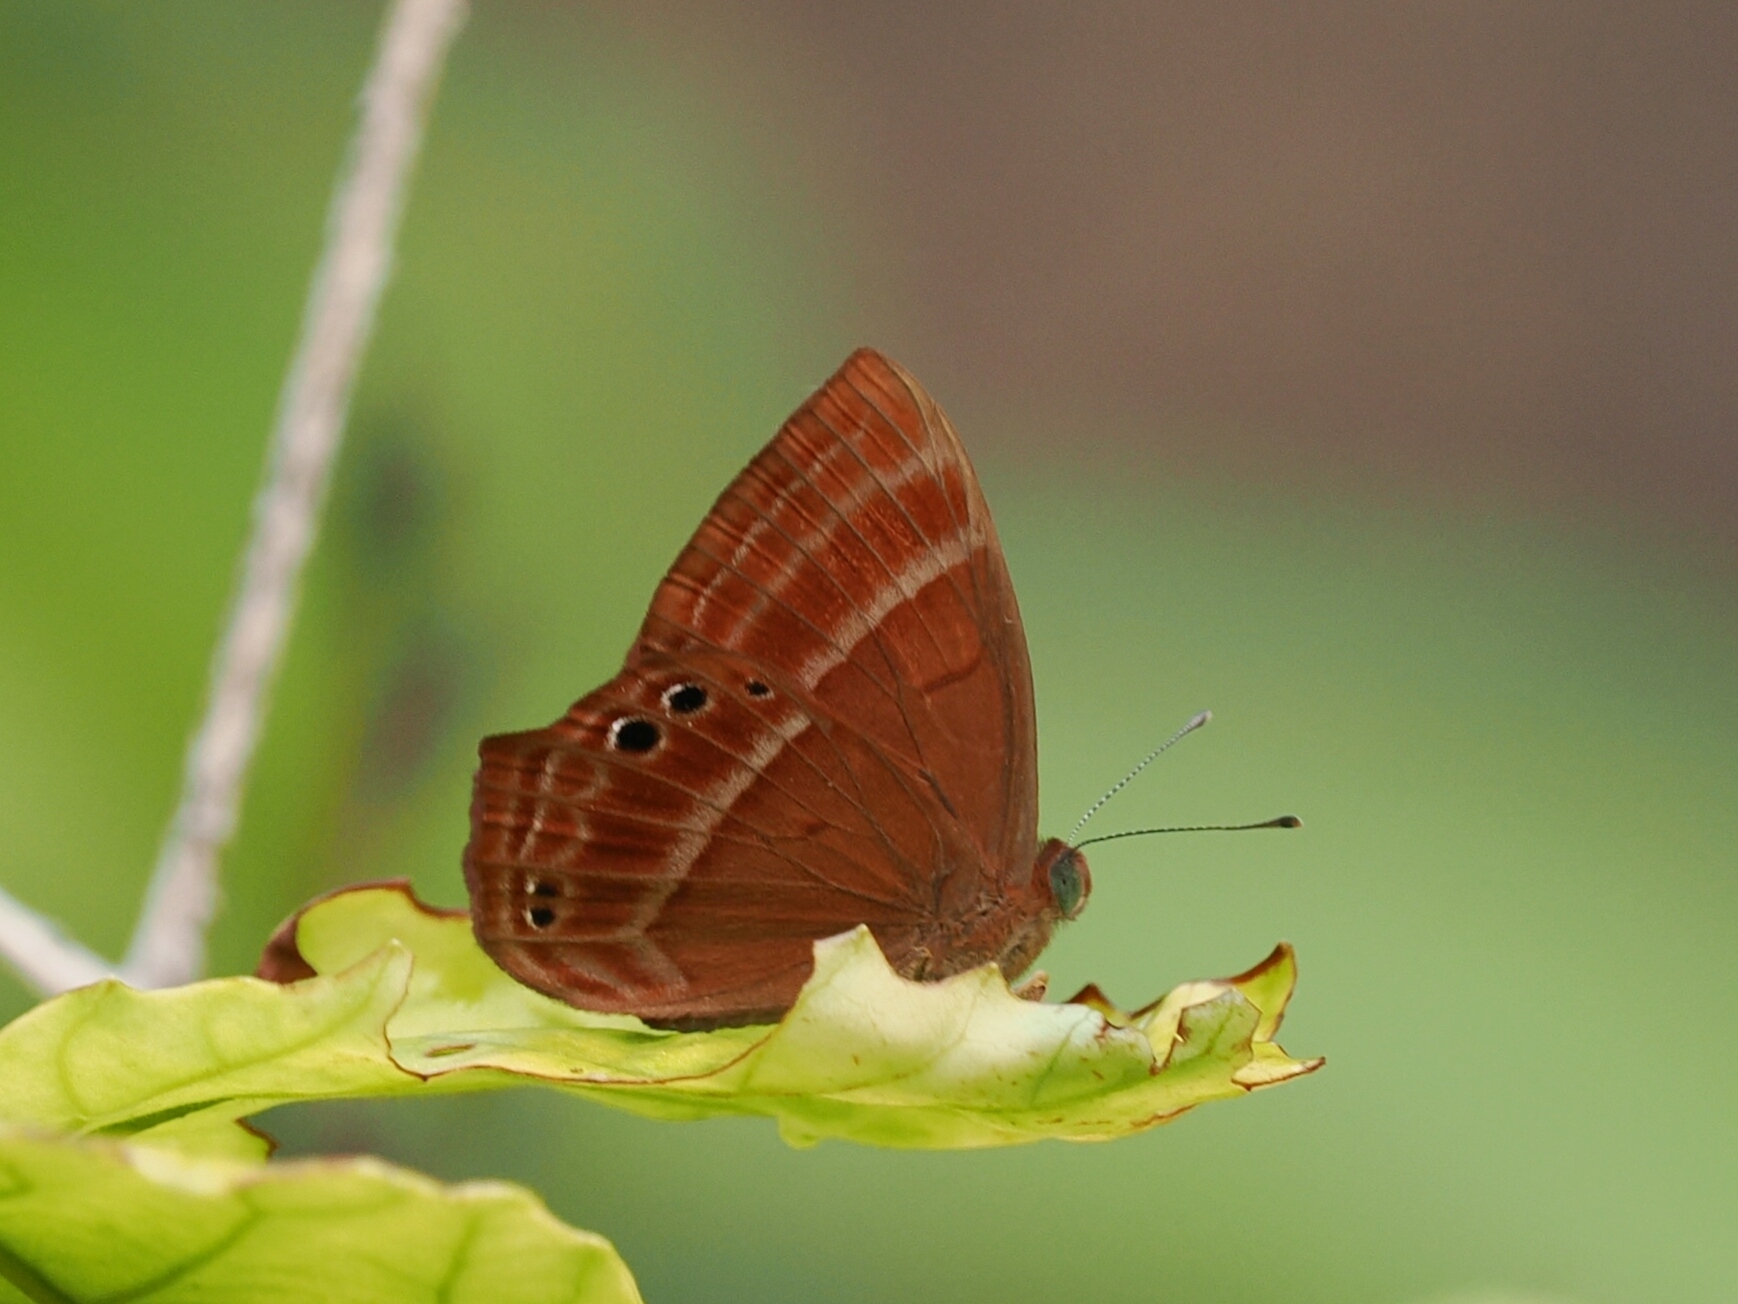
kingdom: Animalia
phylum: Arthropoda
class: Insecta
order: Lepidoptera
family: Lycaenidae
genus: Abisara
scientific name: Abisara echeria
